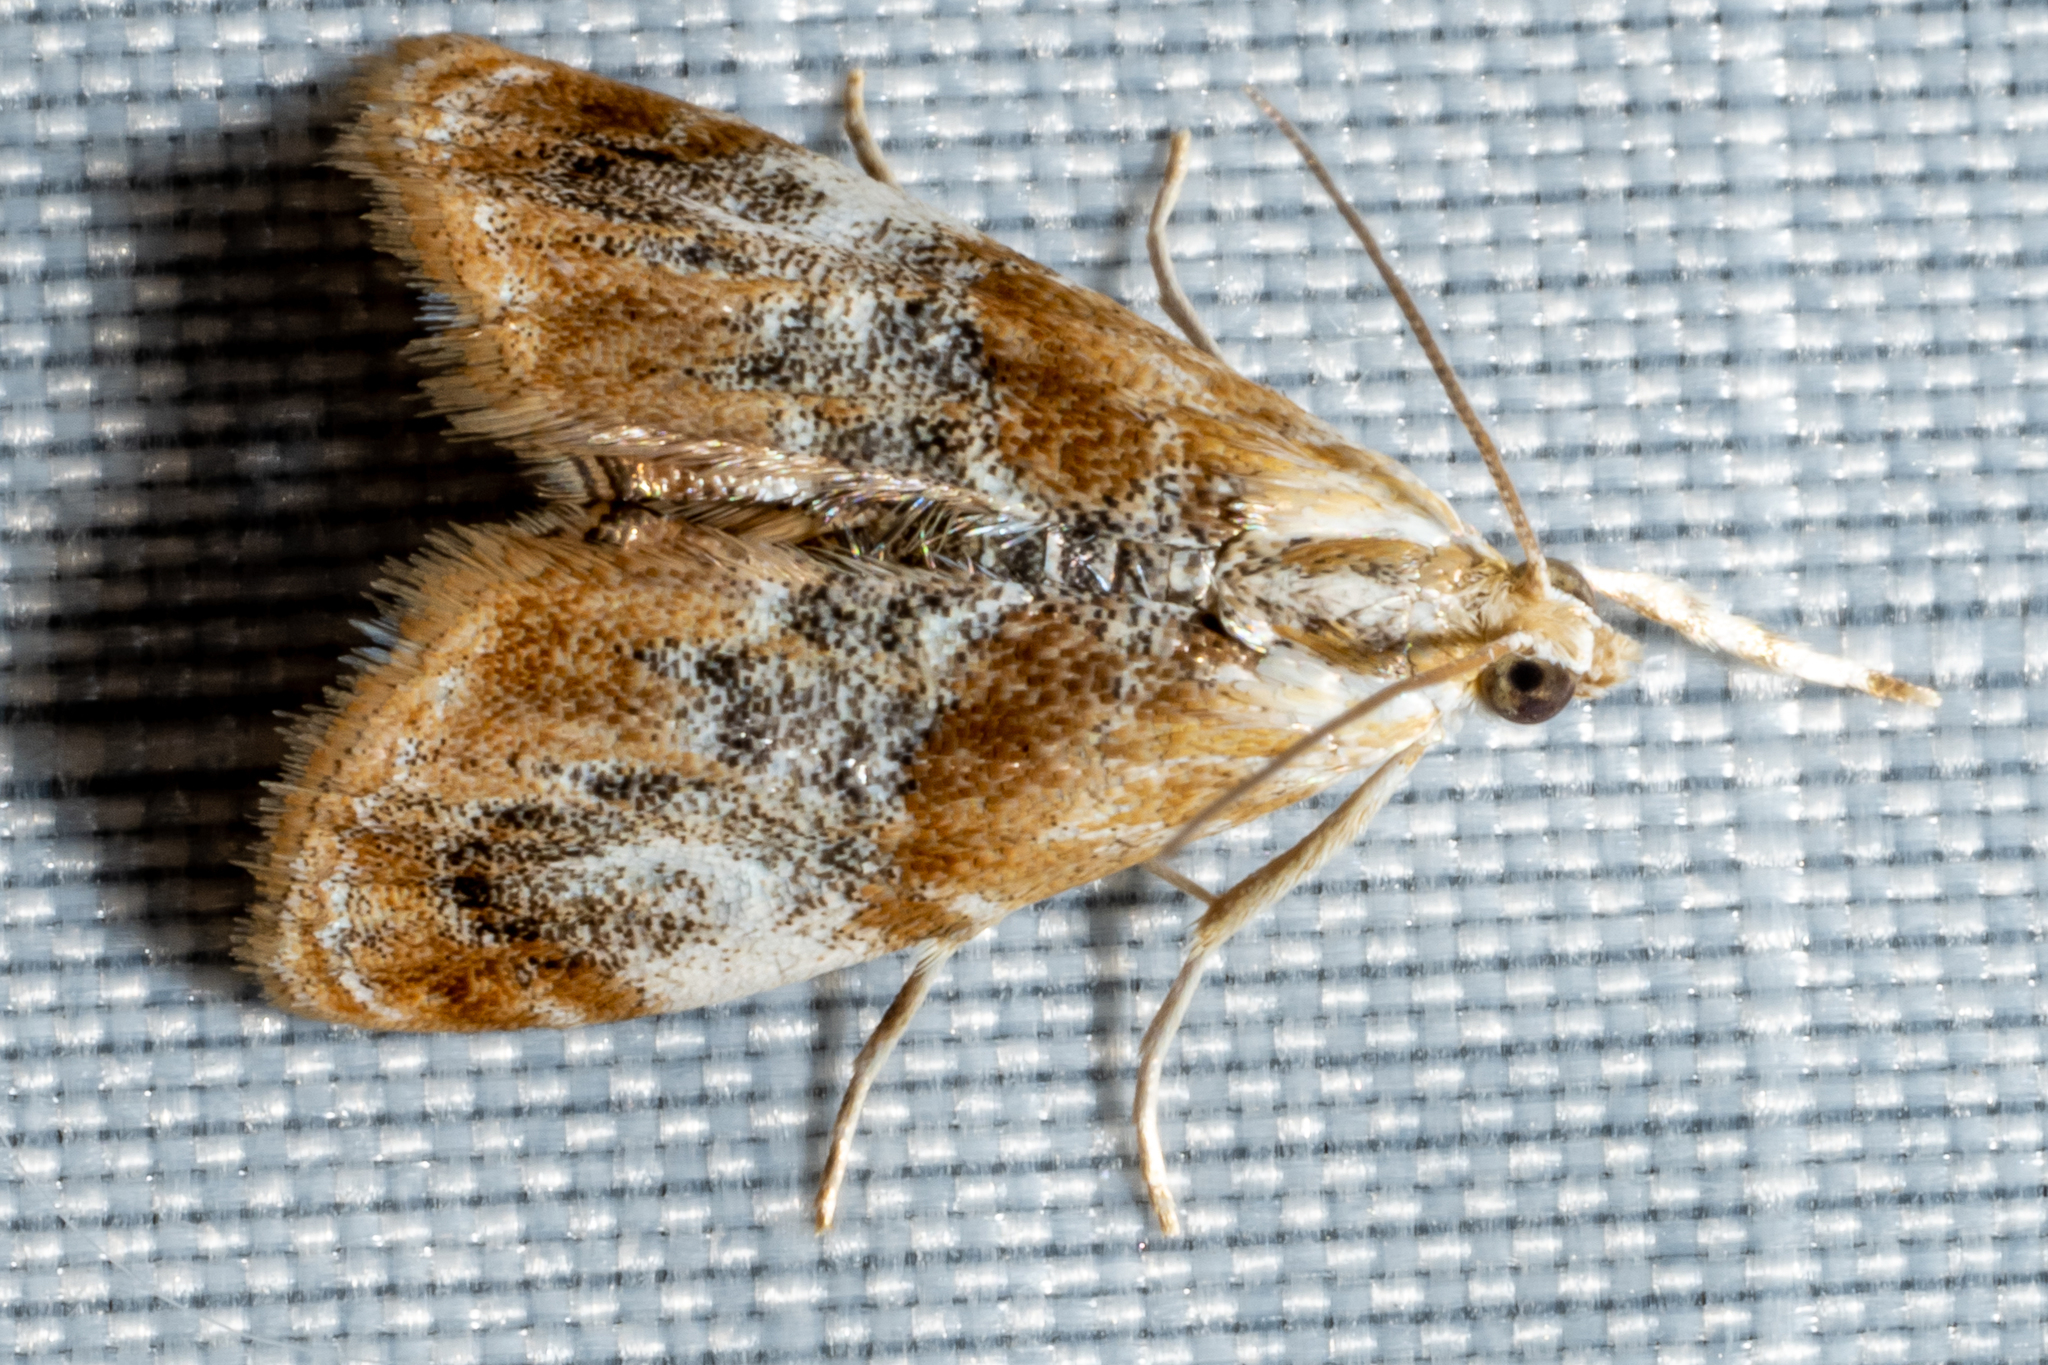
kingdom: Animalia
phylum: Arthropoda
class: Insecta
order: Lepidoptera
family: Crambidae
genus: Dicymolomia
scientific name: Dicymolomia julianalis
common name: Julia's dicymolomia moth
